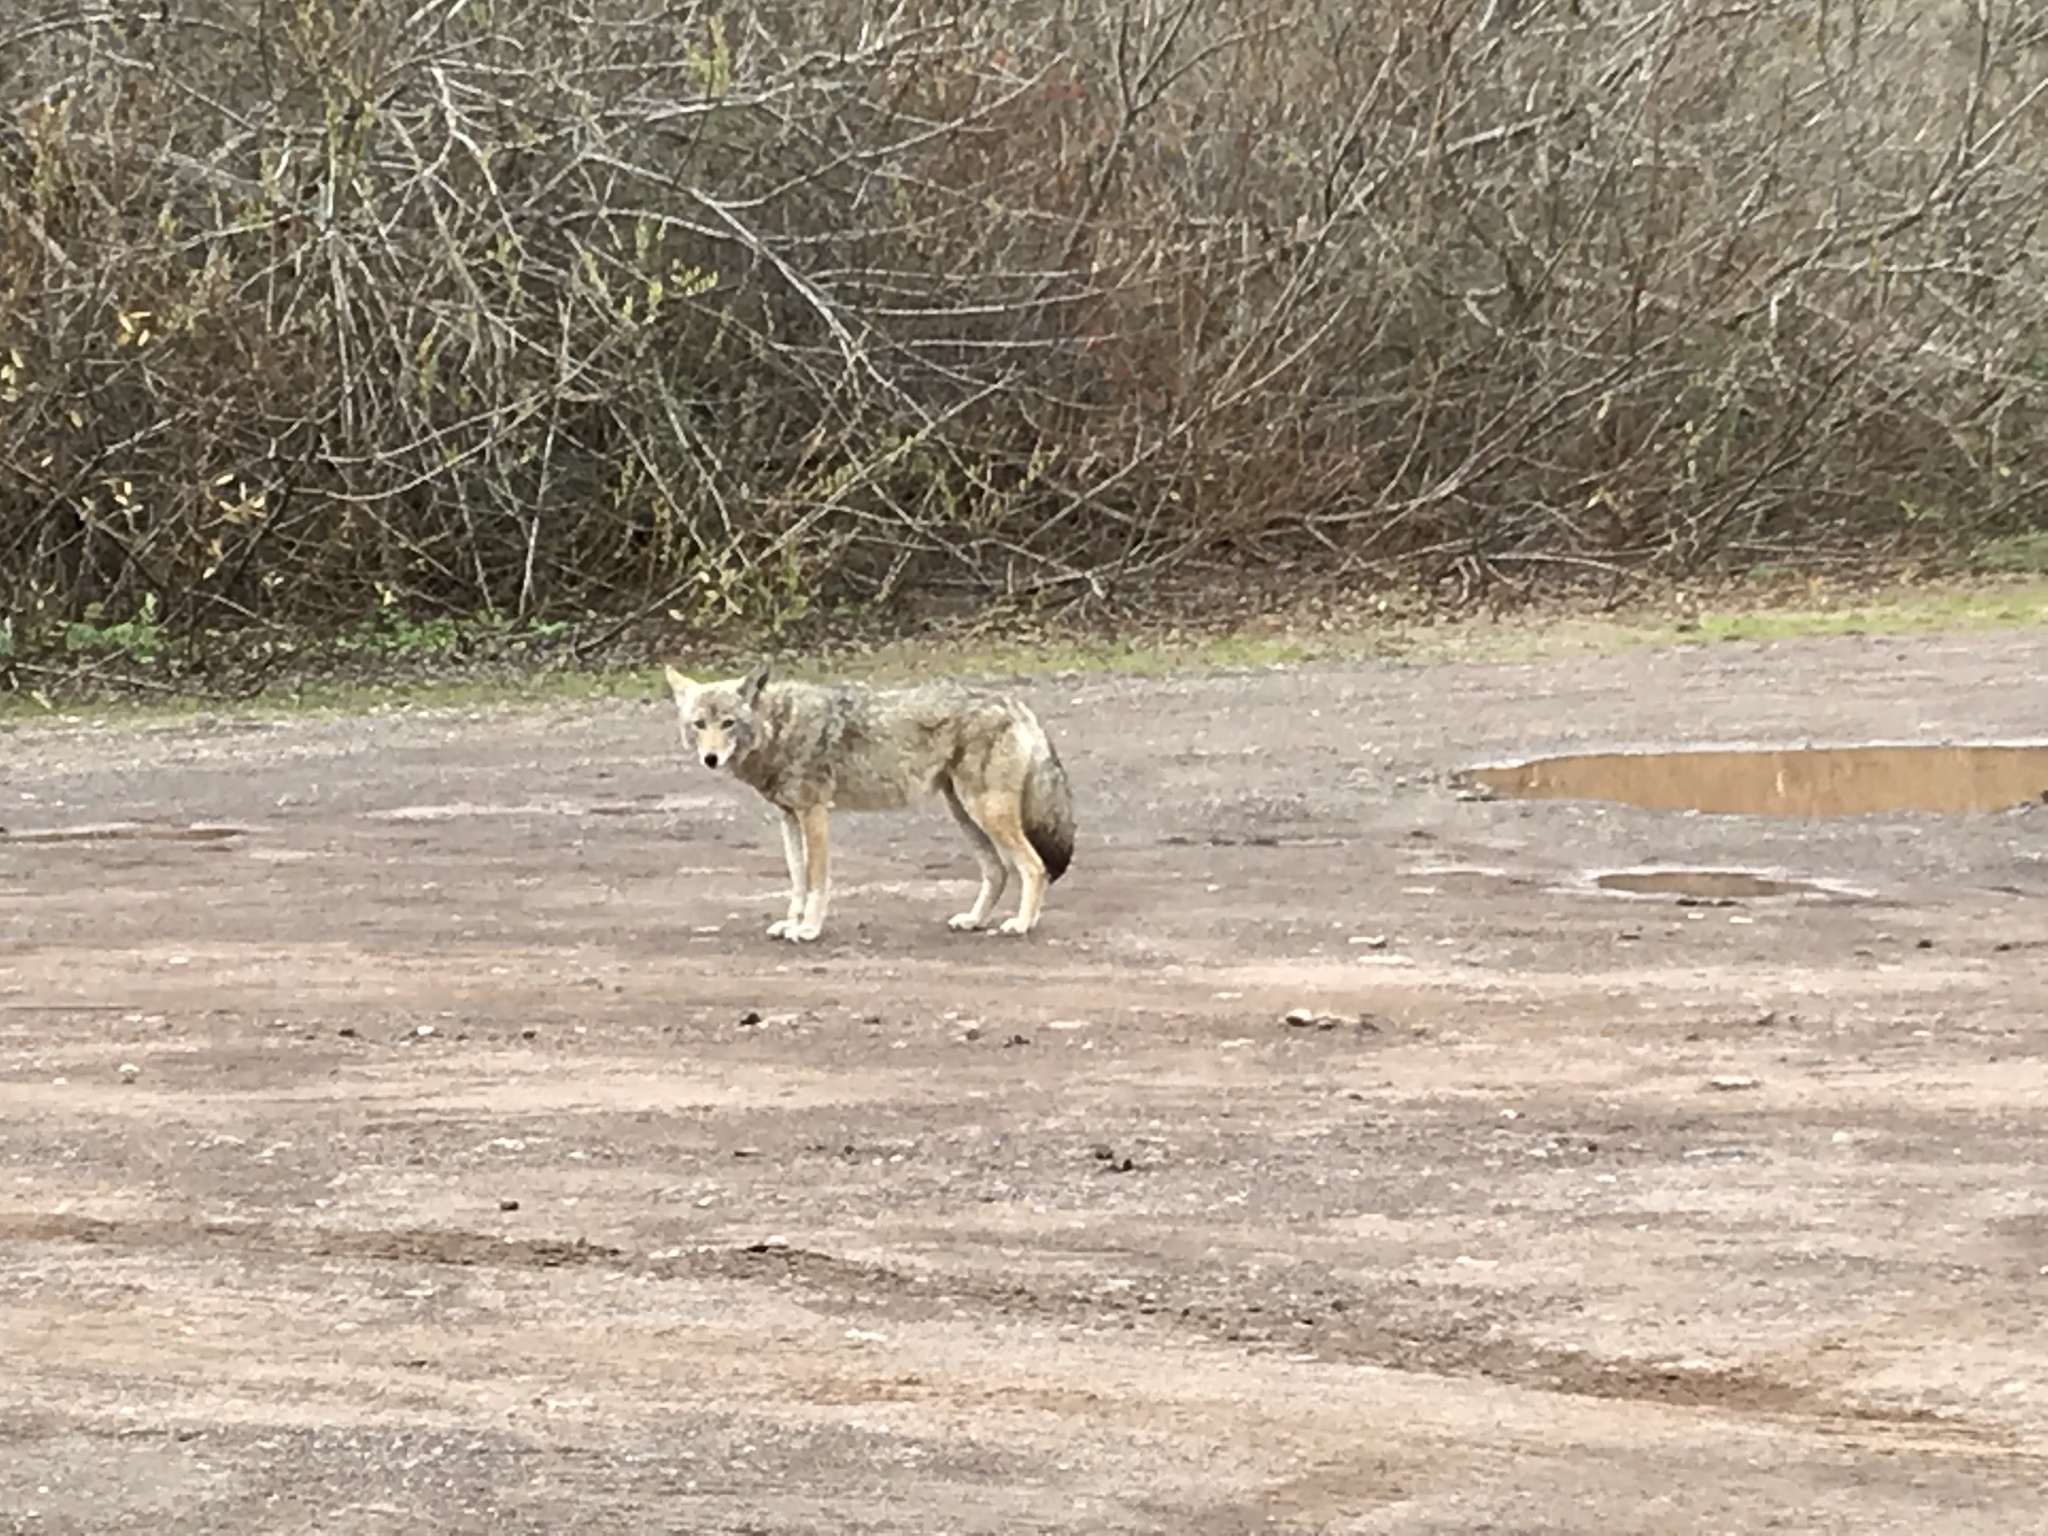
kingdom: Animalia
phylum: Chordata
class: Mammalia
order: Carnivora
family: Canidae
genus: Canis
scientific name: Canis latrans
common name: Coyote
